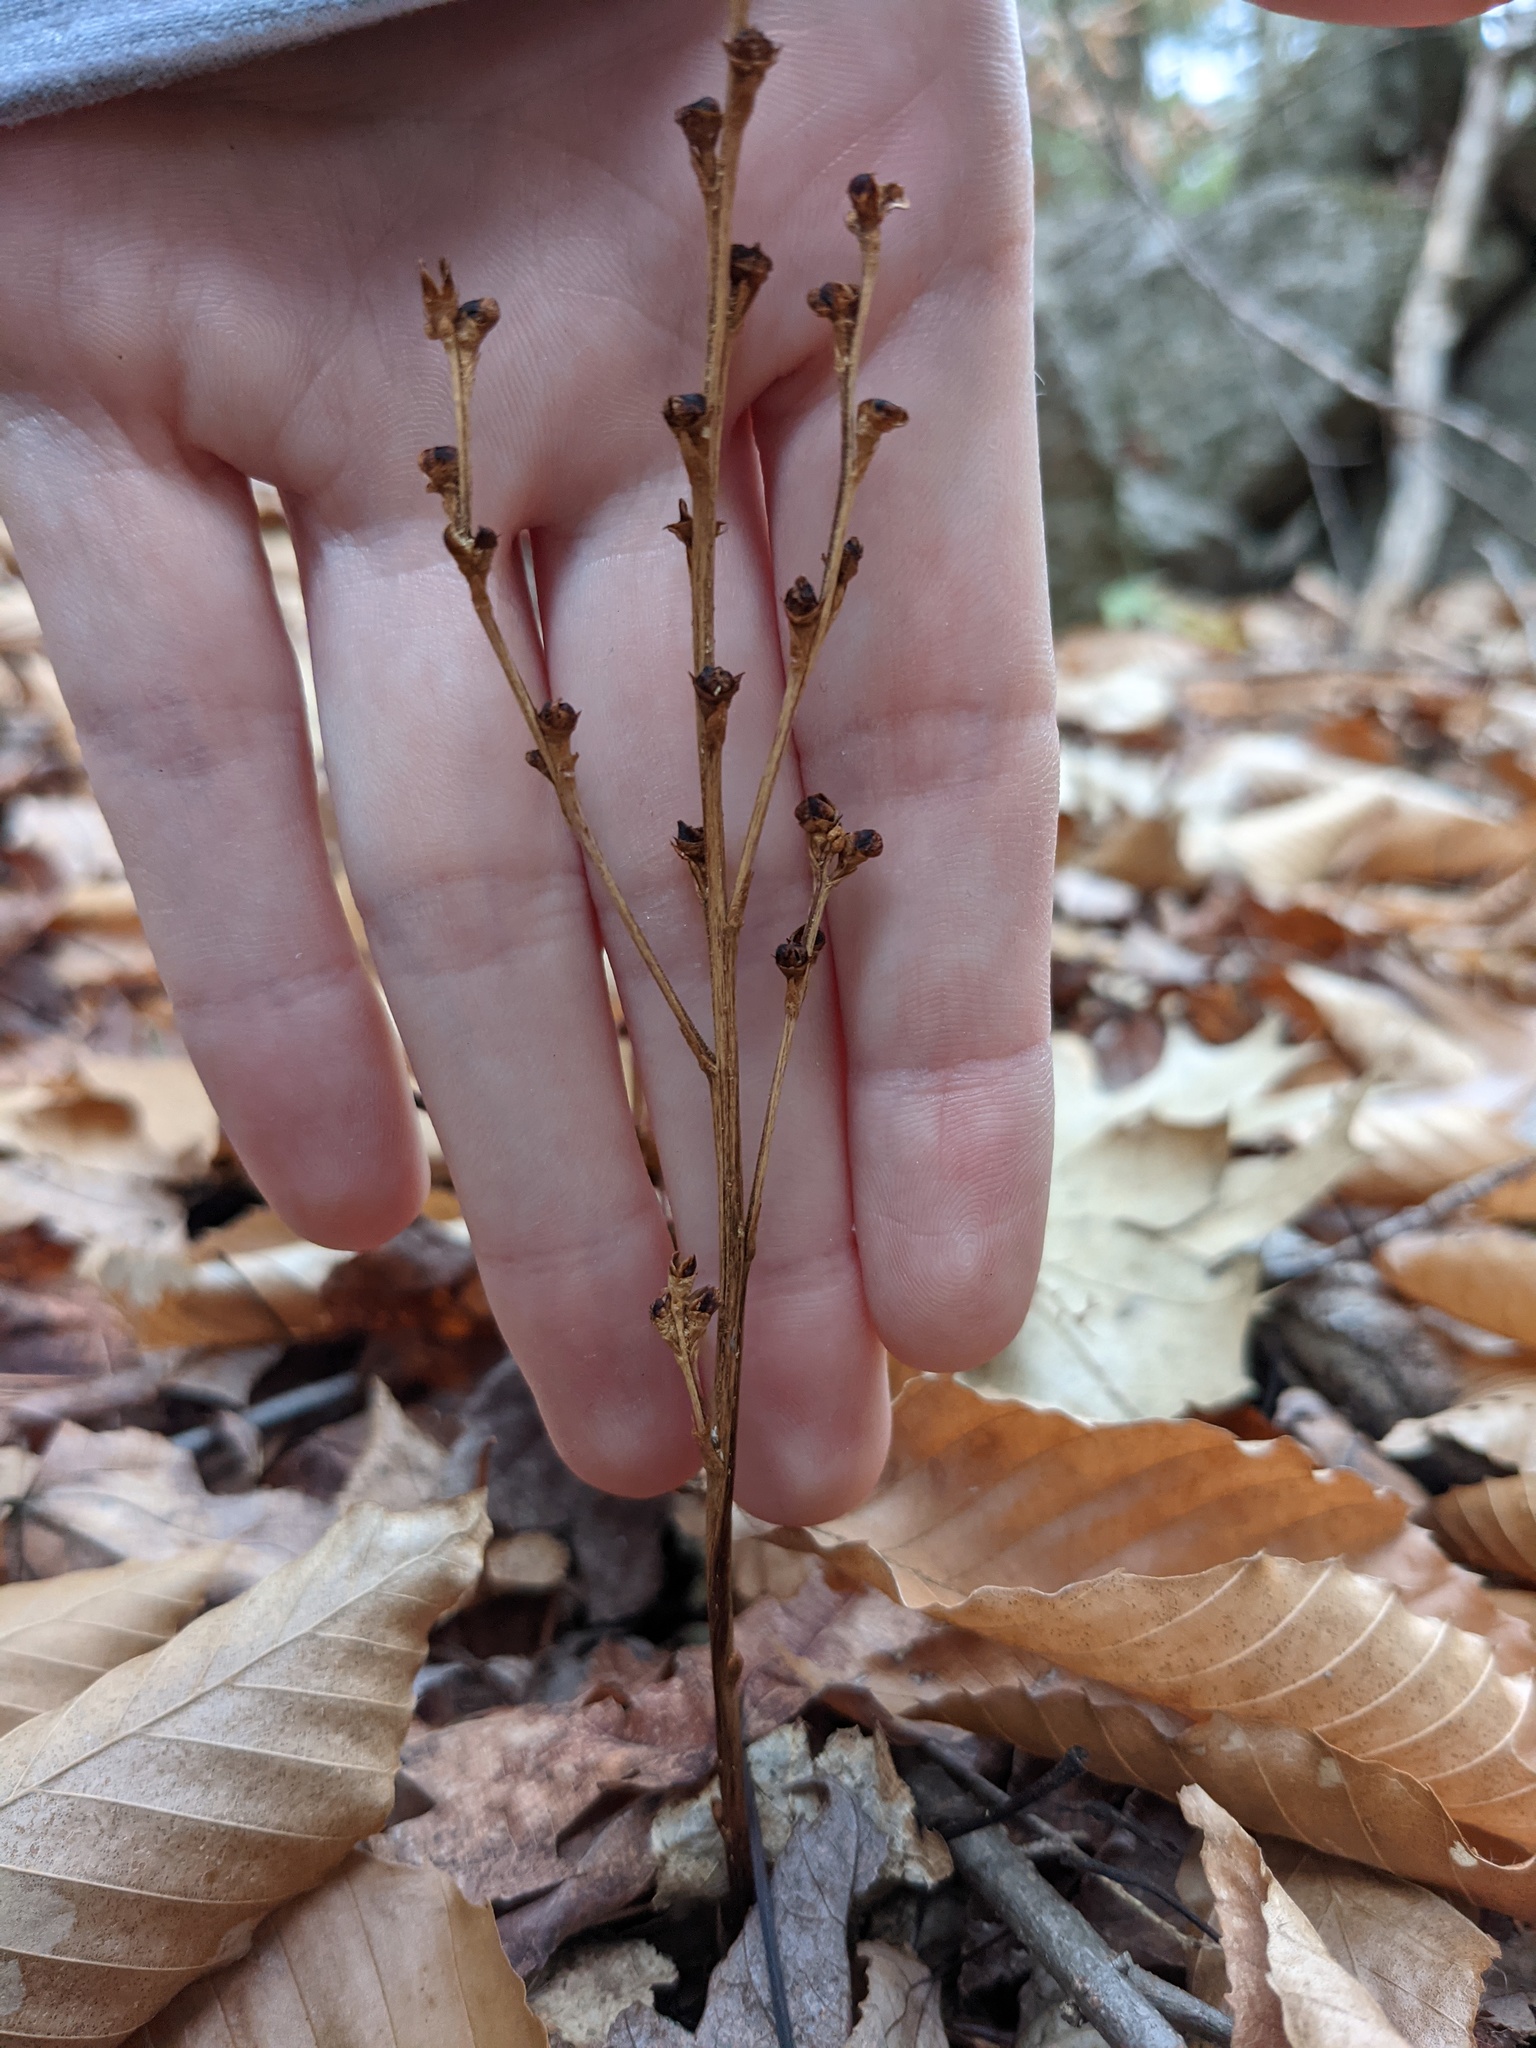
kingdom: Plantae
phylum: Tracheophyta
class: Magnoliopsida
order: Lamiales
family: Orobanchaceae
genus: Epifagus
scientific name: Epifagus virginiana
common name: Beechdrops
